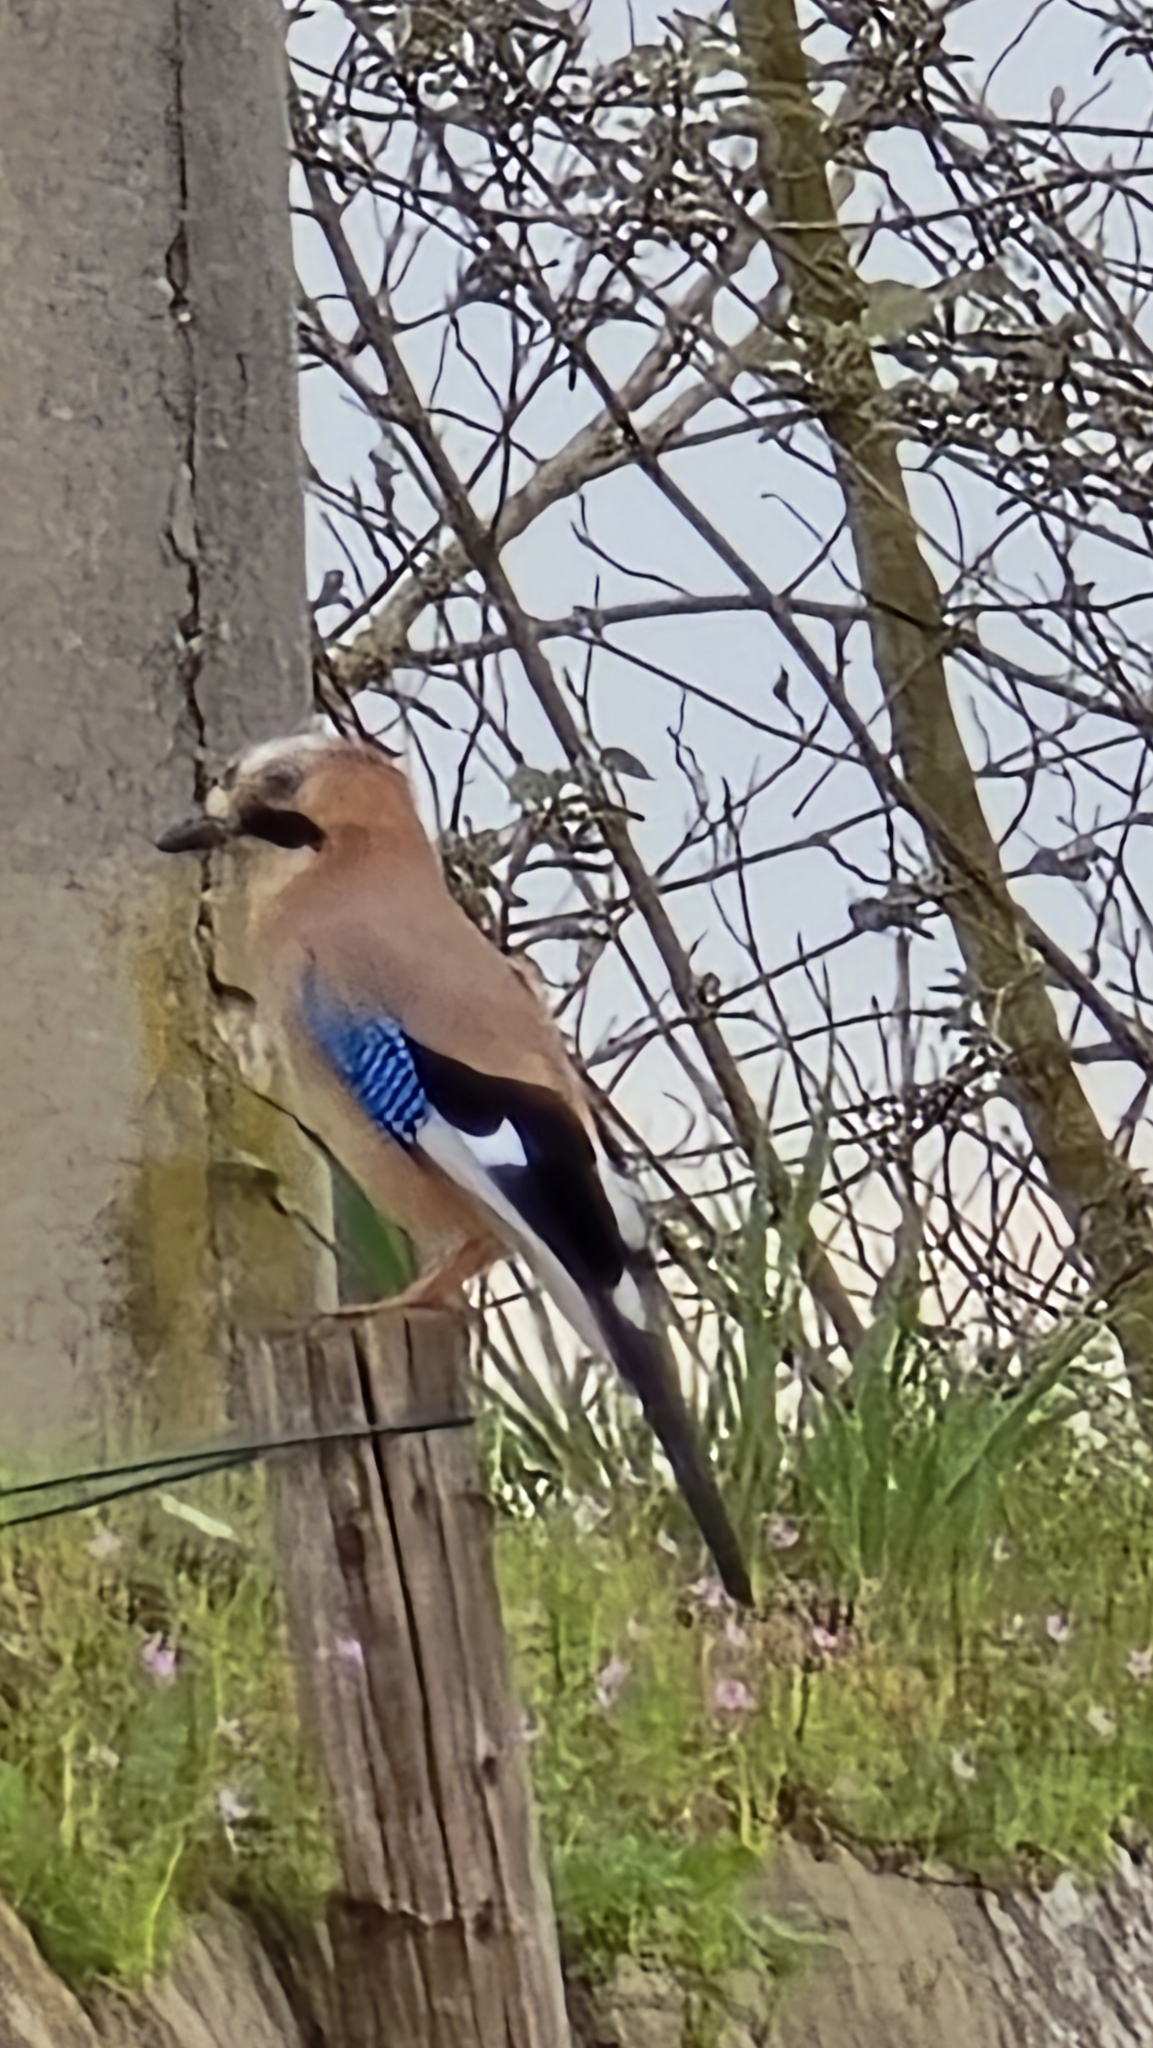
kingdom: Animalia
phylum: Chordata
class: Aves
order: Passeriformes
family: Corvidae
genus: Garrulus
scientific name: Garrulus glandarius
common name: Eurasian jay
